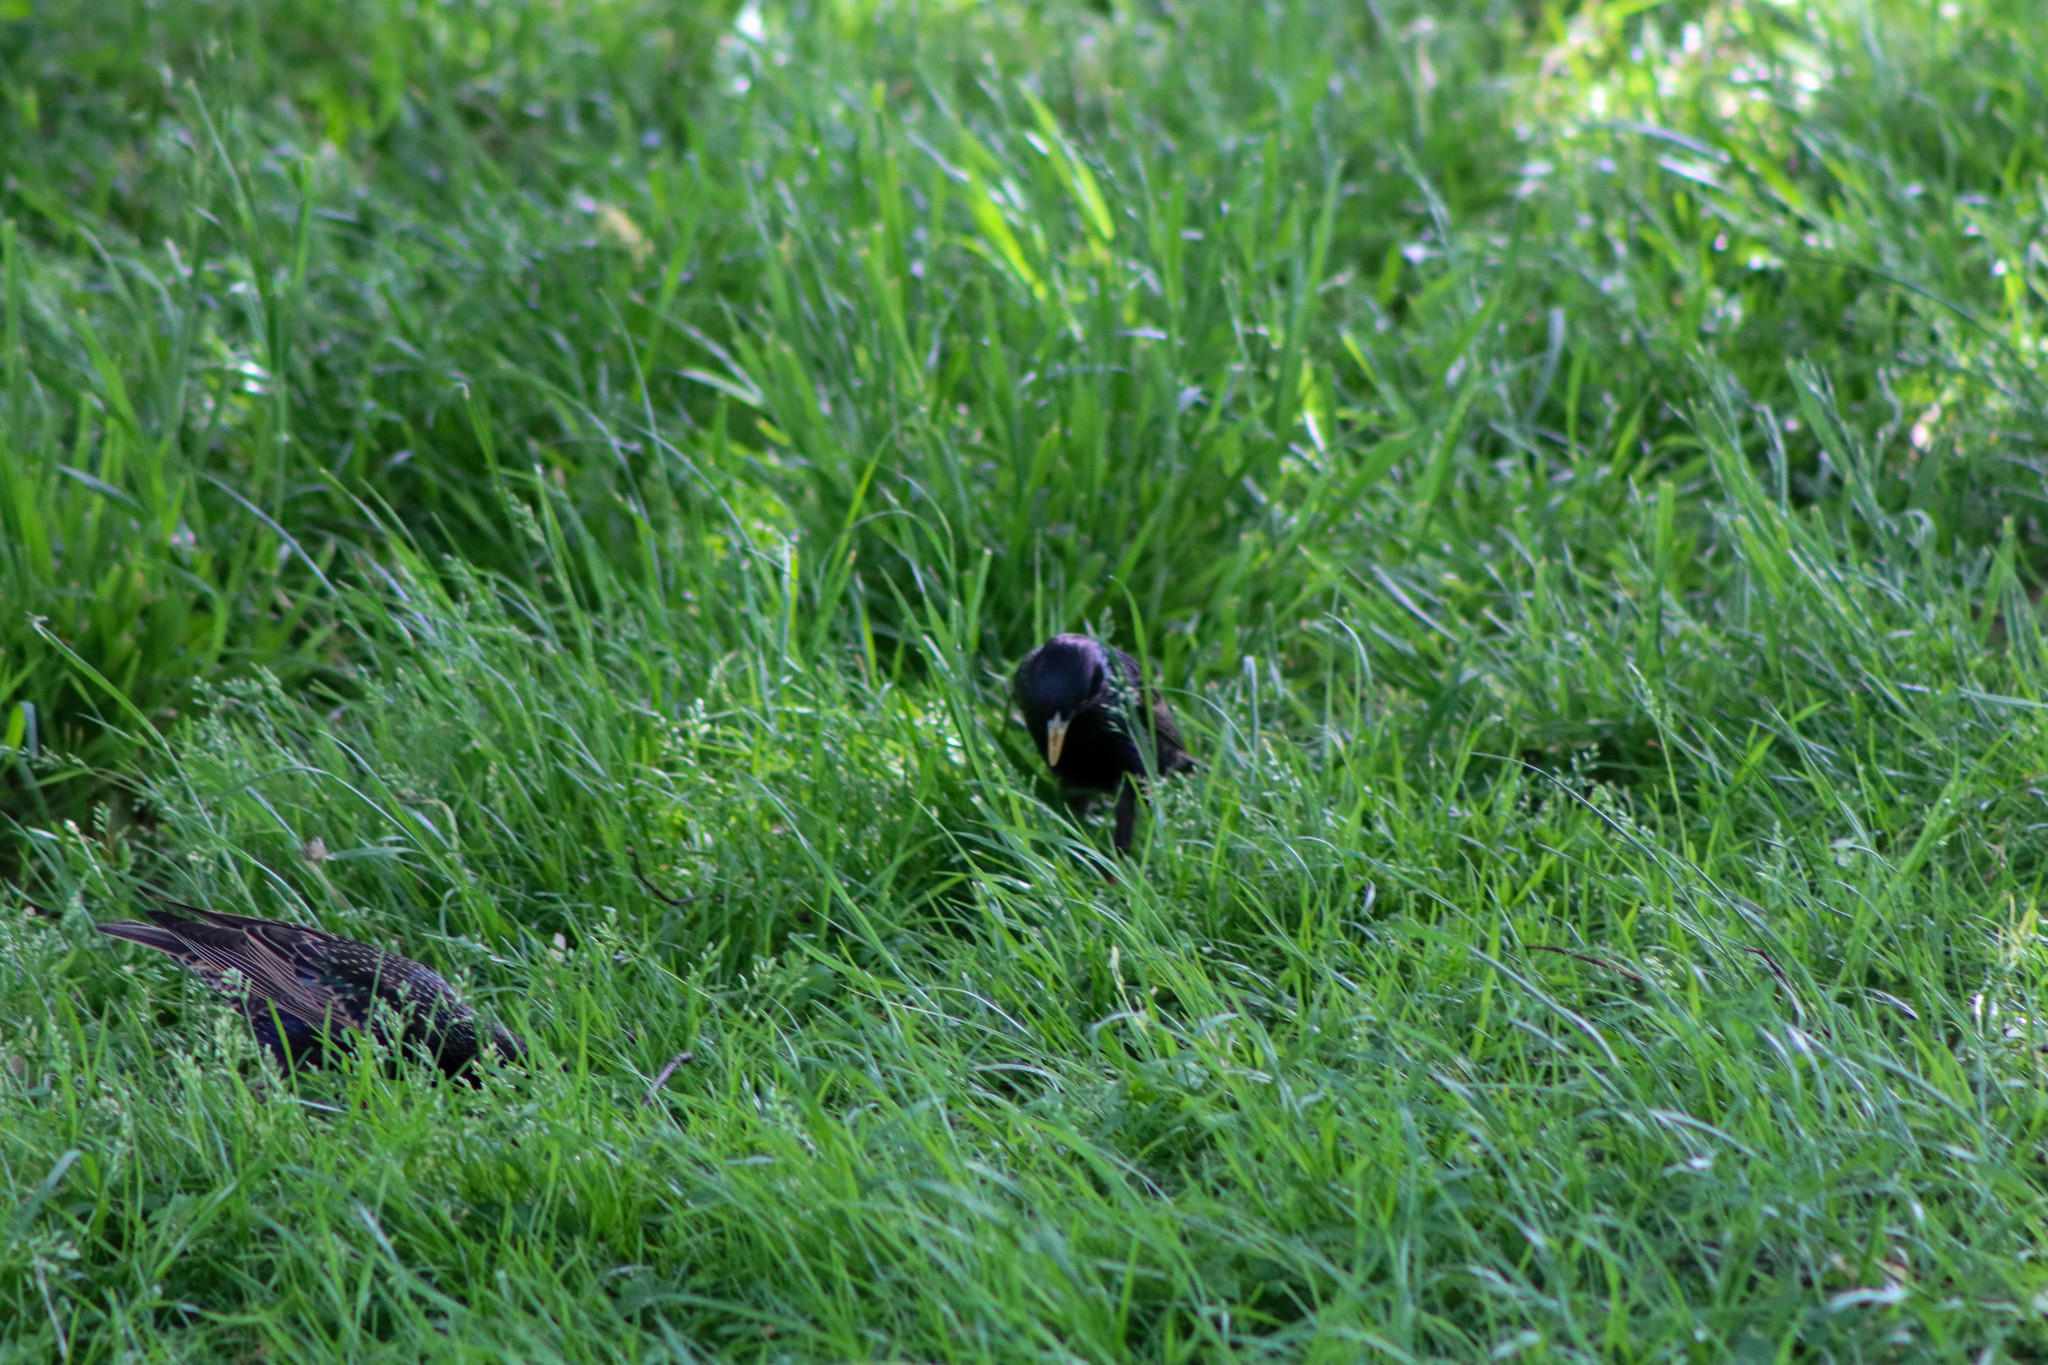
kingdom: Animalia
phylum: Chordata
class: Aves
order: Passeriformes
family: Sturnidae
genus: Sturnus
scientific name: Sturnus vulgaris
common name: Common starling
